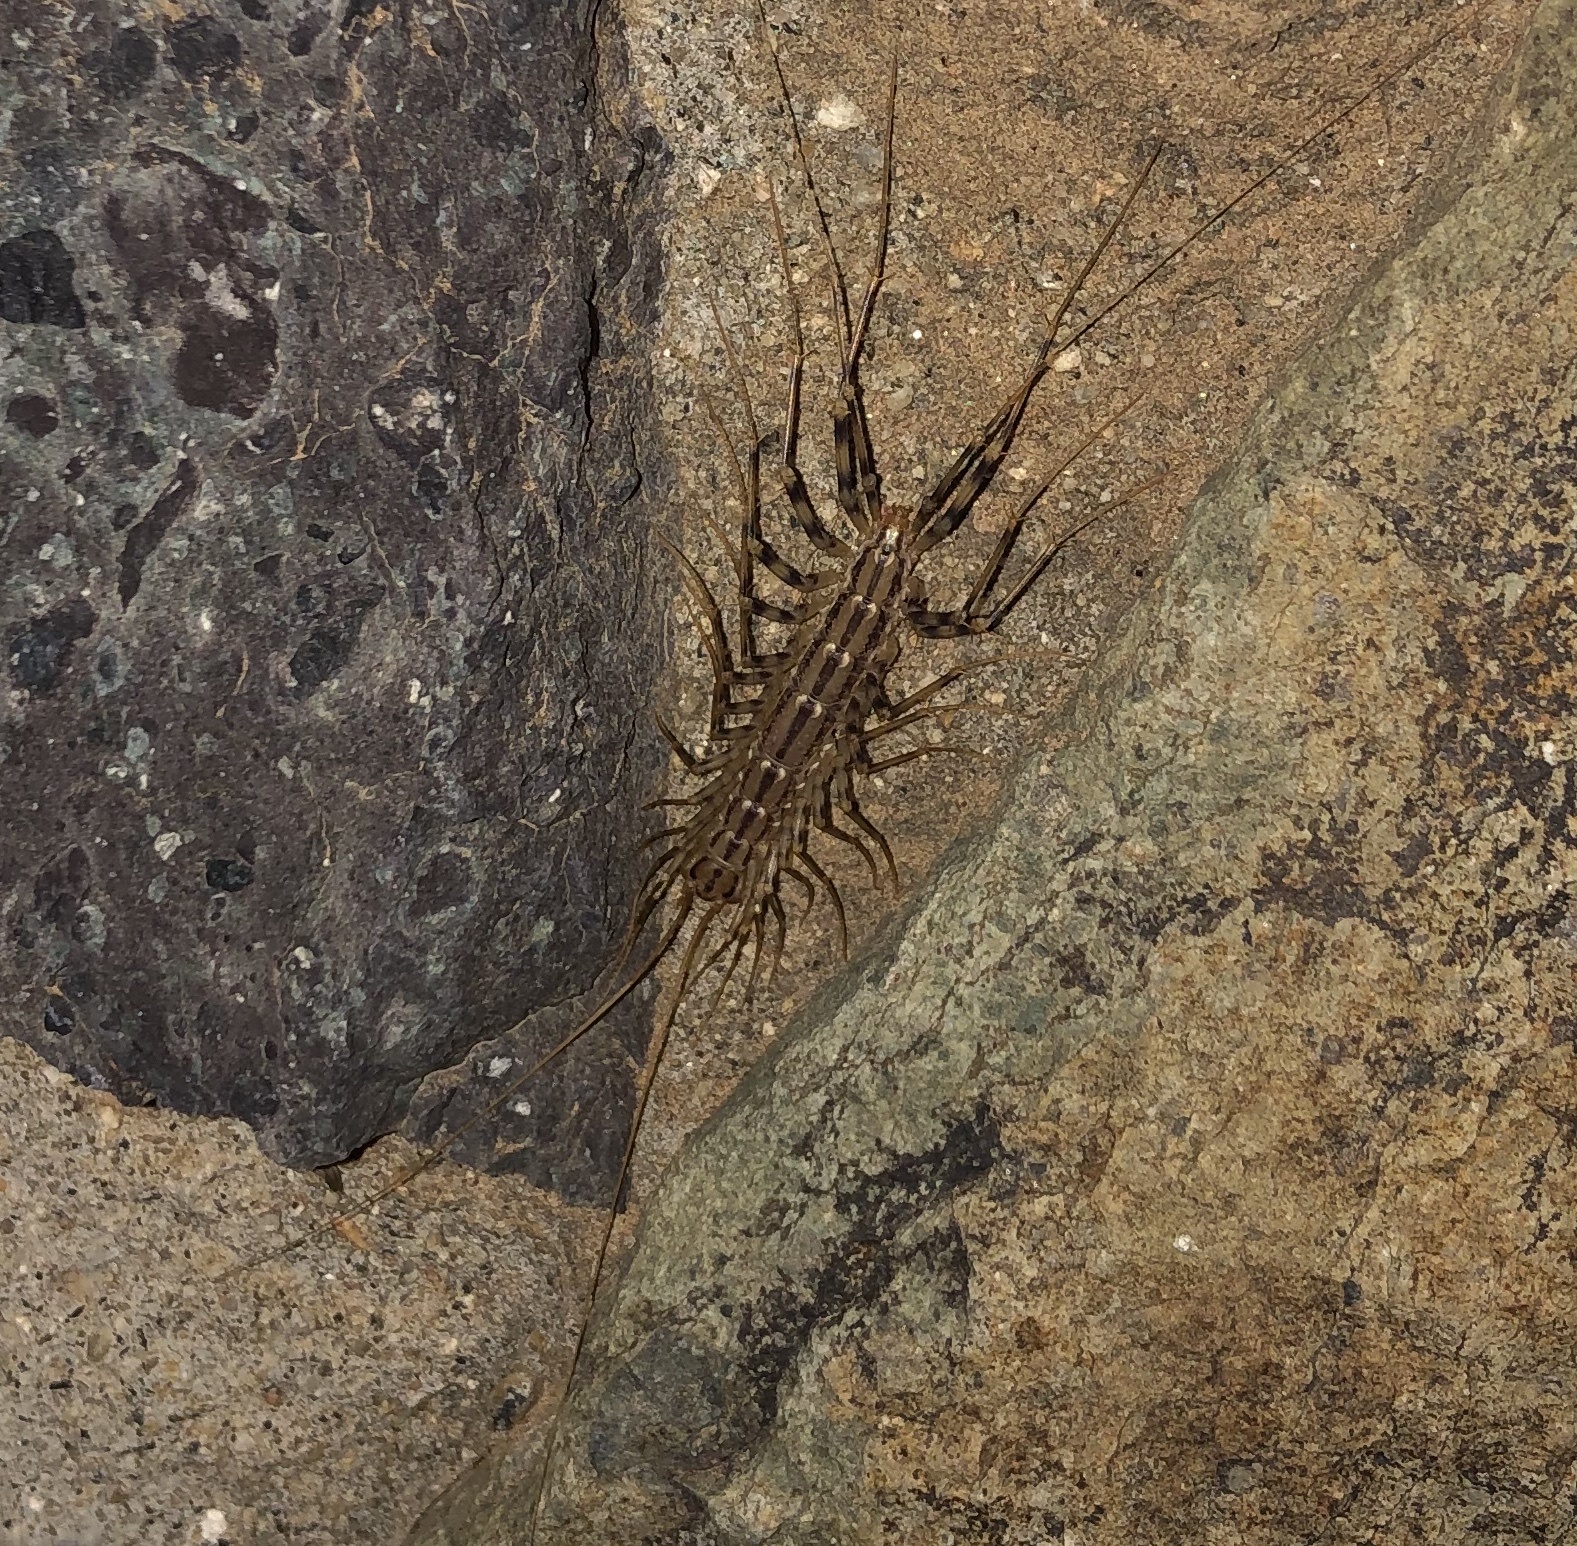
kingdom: Animalia
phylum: Arthropoda
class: Chilopoda
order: Scutigeromorpha
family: Scutigeridae
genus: Scutigera
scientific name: Scutigera coleoptrata
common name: House centipede
